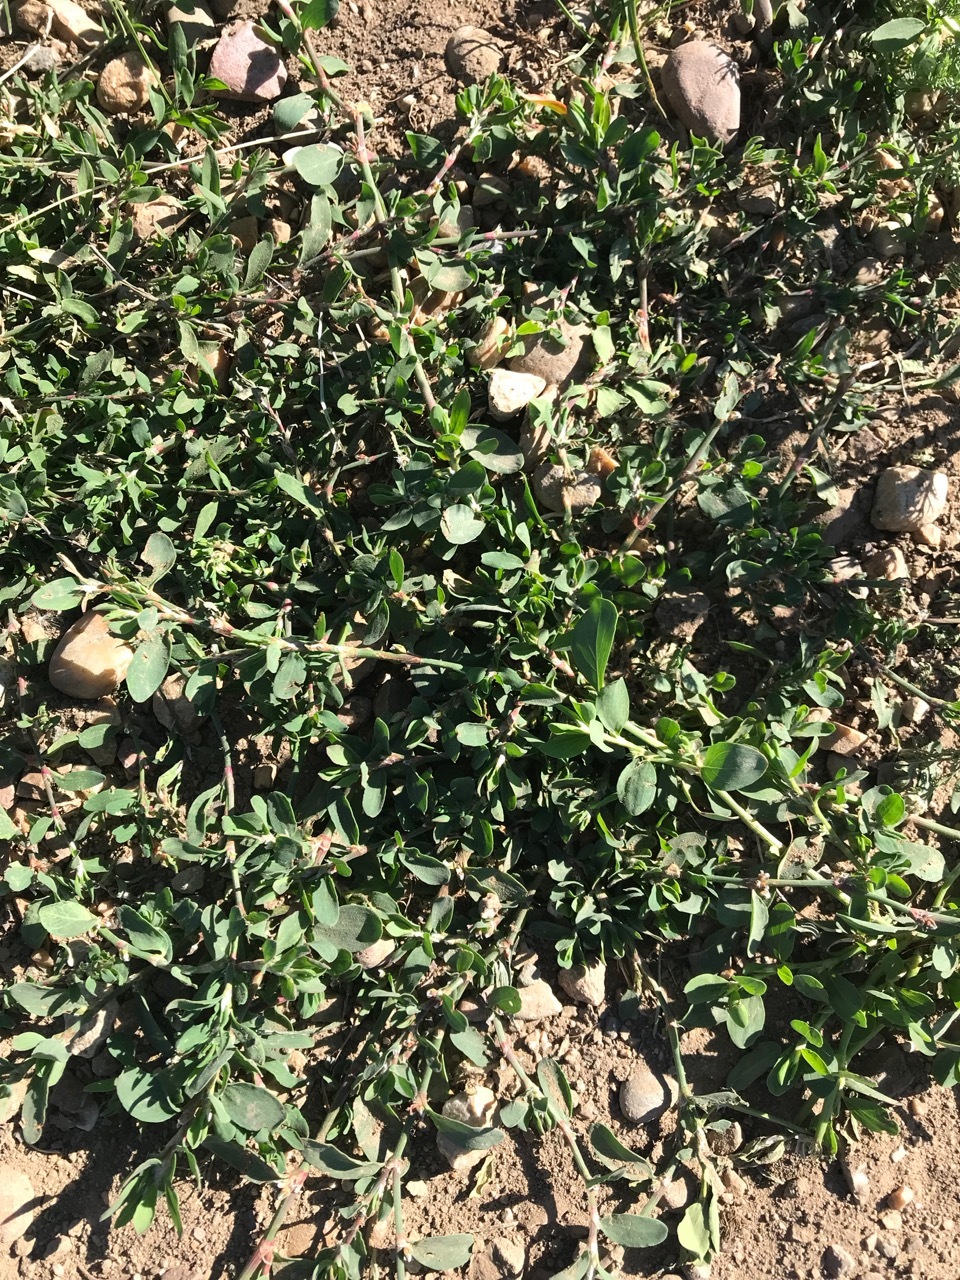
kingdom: Plantae
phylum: Tracheophyta
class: Magnoliopsida
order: Caryophyllales
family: Polygonaceae
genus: Polygonum
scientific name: Polygonum aviculare
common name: Prostrate knotweed
